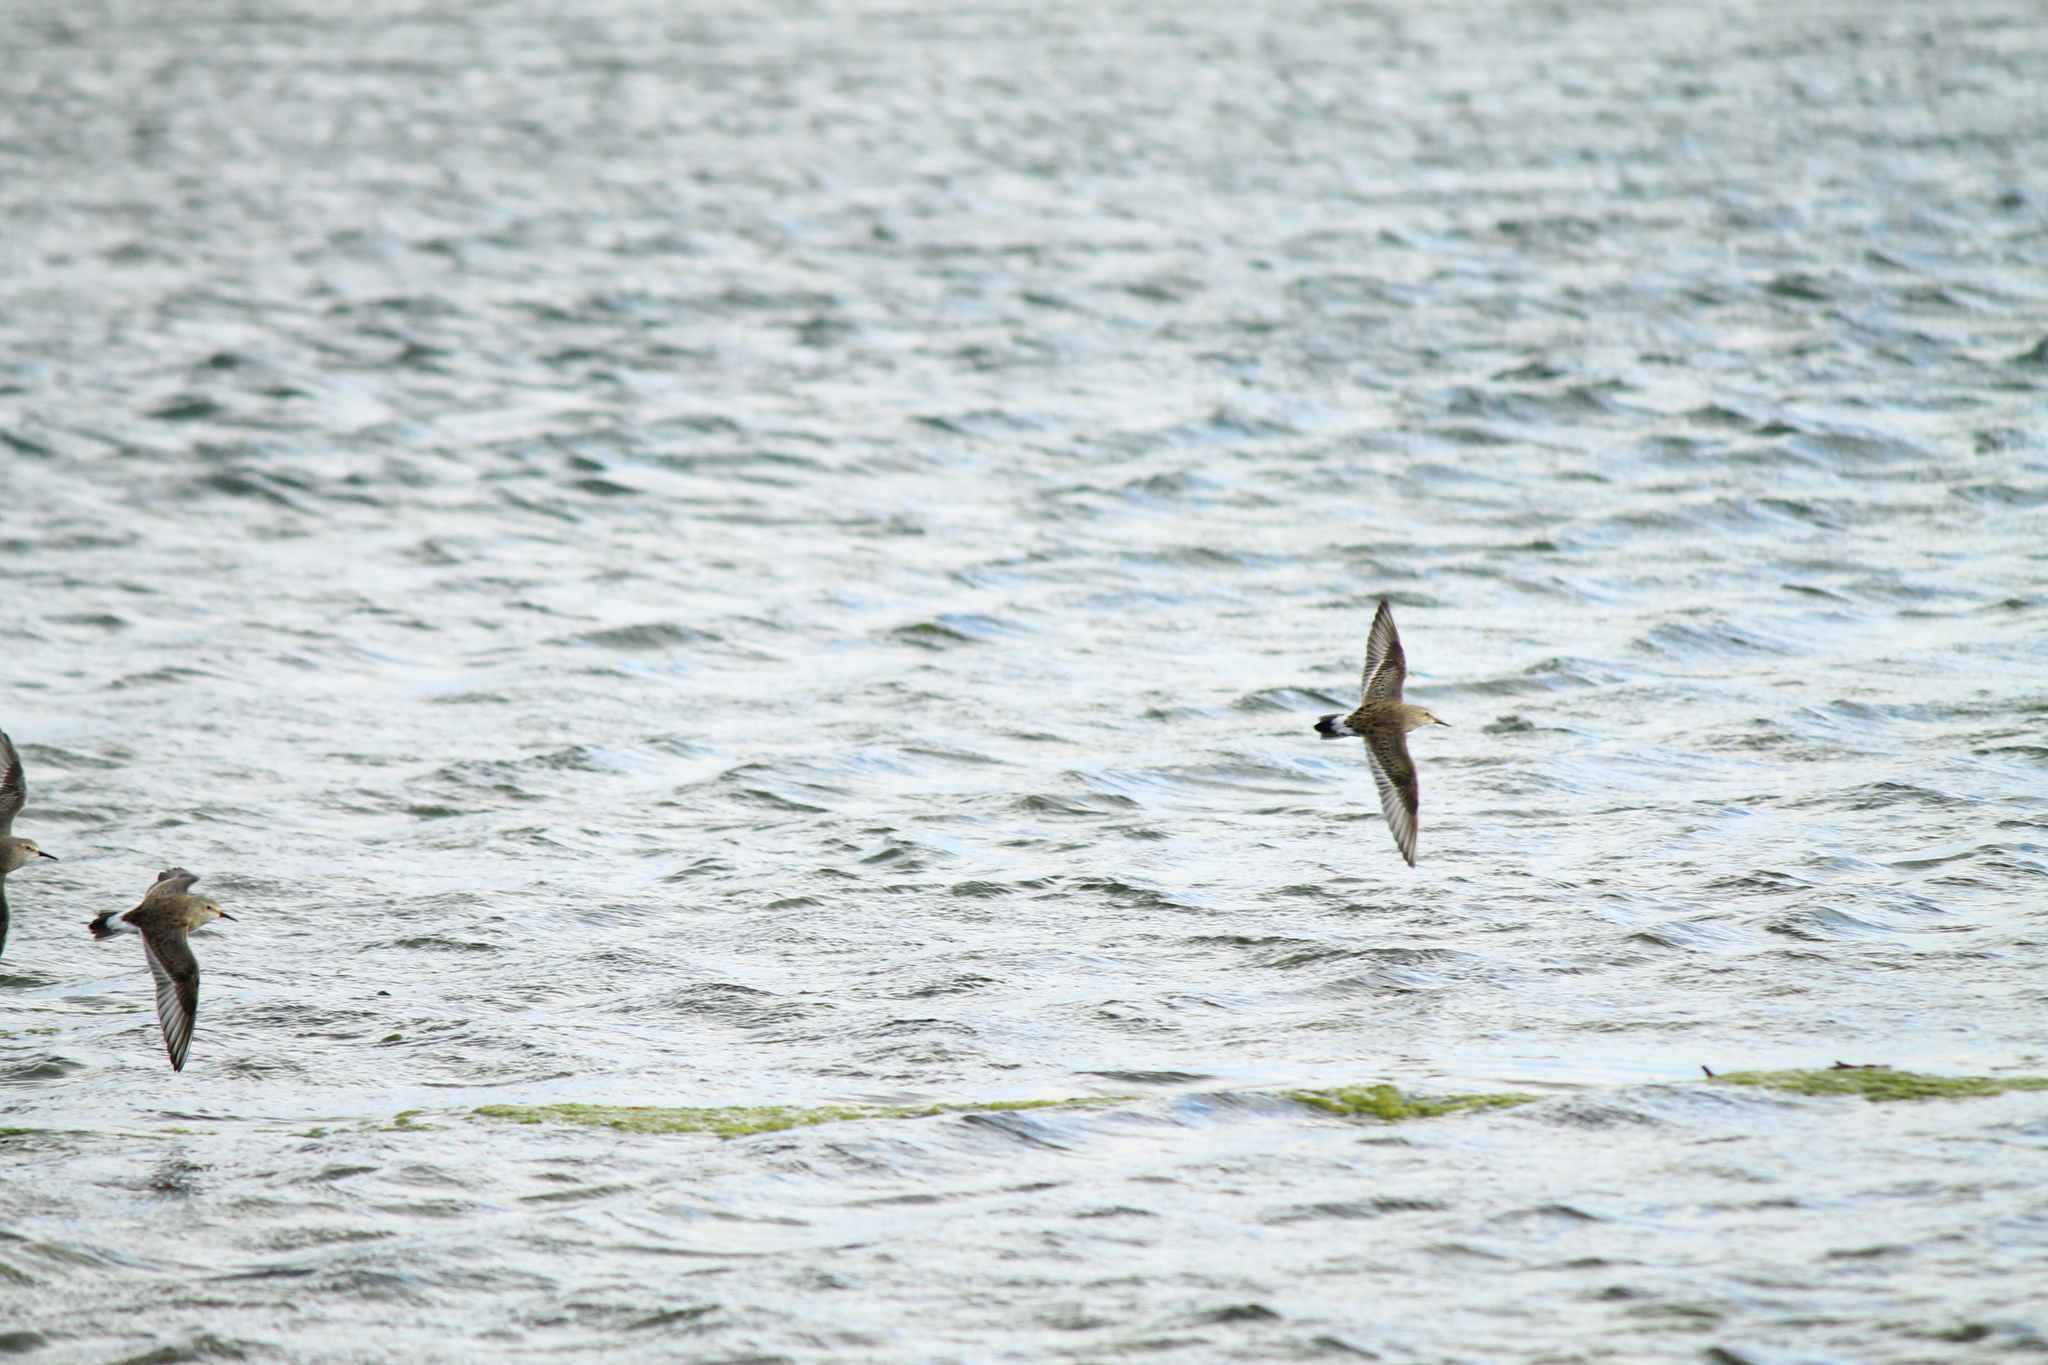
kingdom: Animalia
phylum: Chordata
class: Aves
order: Charadriiformes
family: Scolopacidae
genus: Calidris
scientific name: Calidris fuscicollis
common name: White-rumped sandpiper
